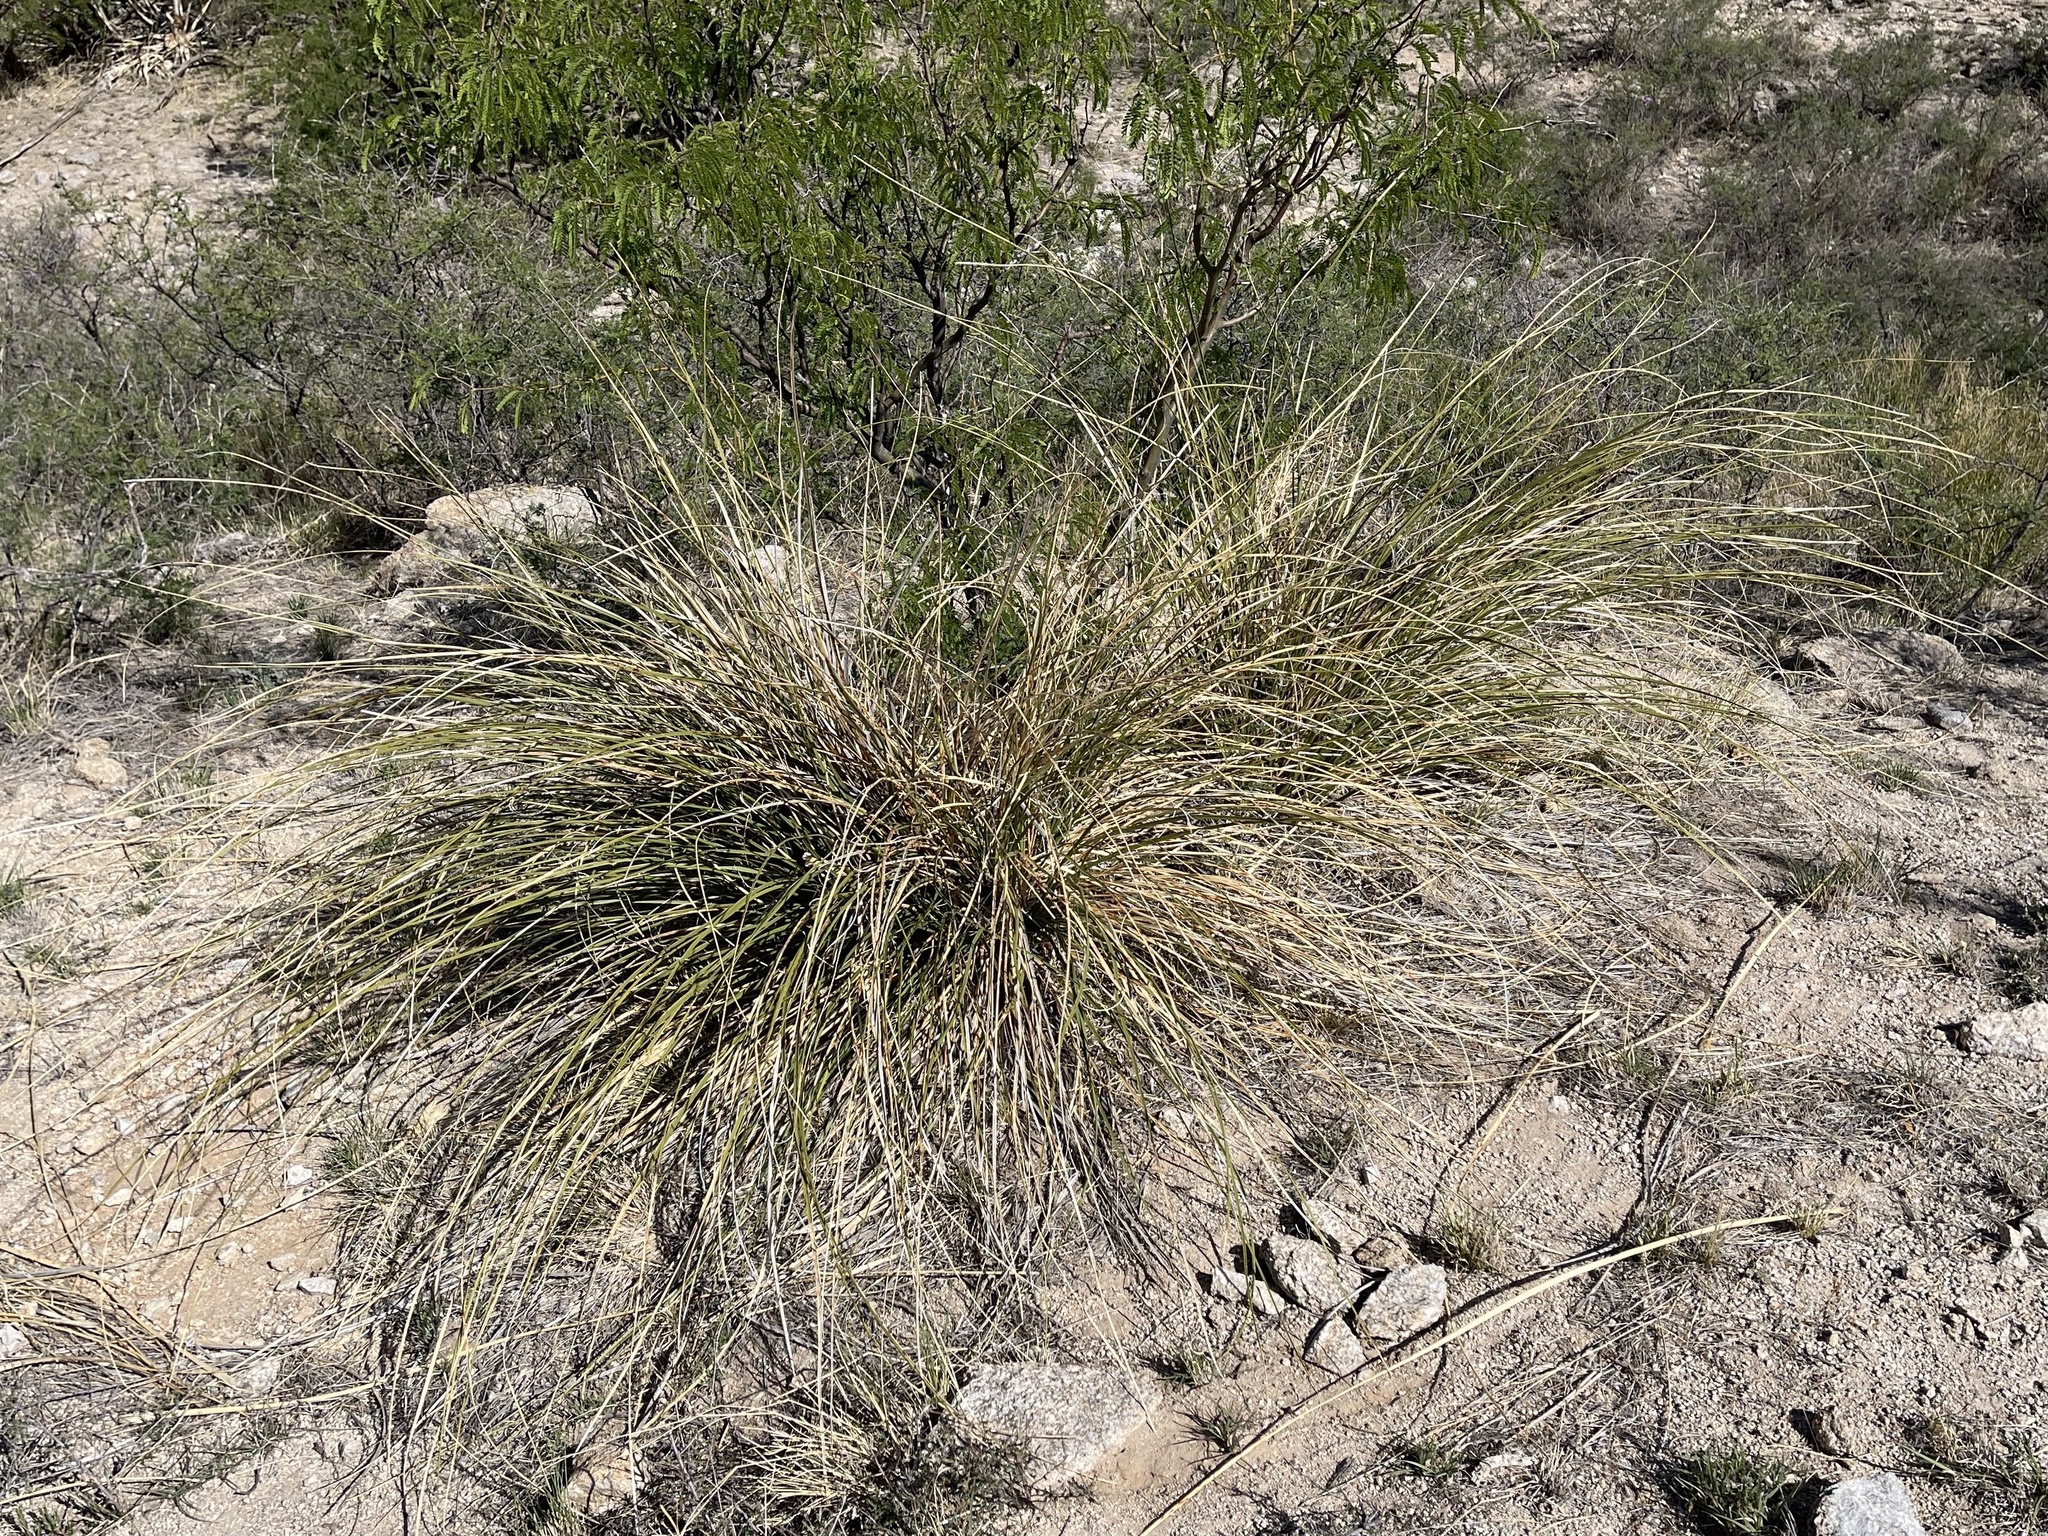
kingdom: Plantae
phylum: Tracheophyta
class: Liliopsida
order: Asparagales
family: Asparagaceae
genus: Nolina
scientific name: Nolina microcarpa
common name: Bear-grass
